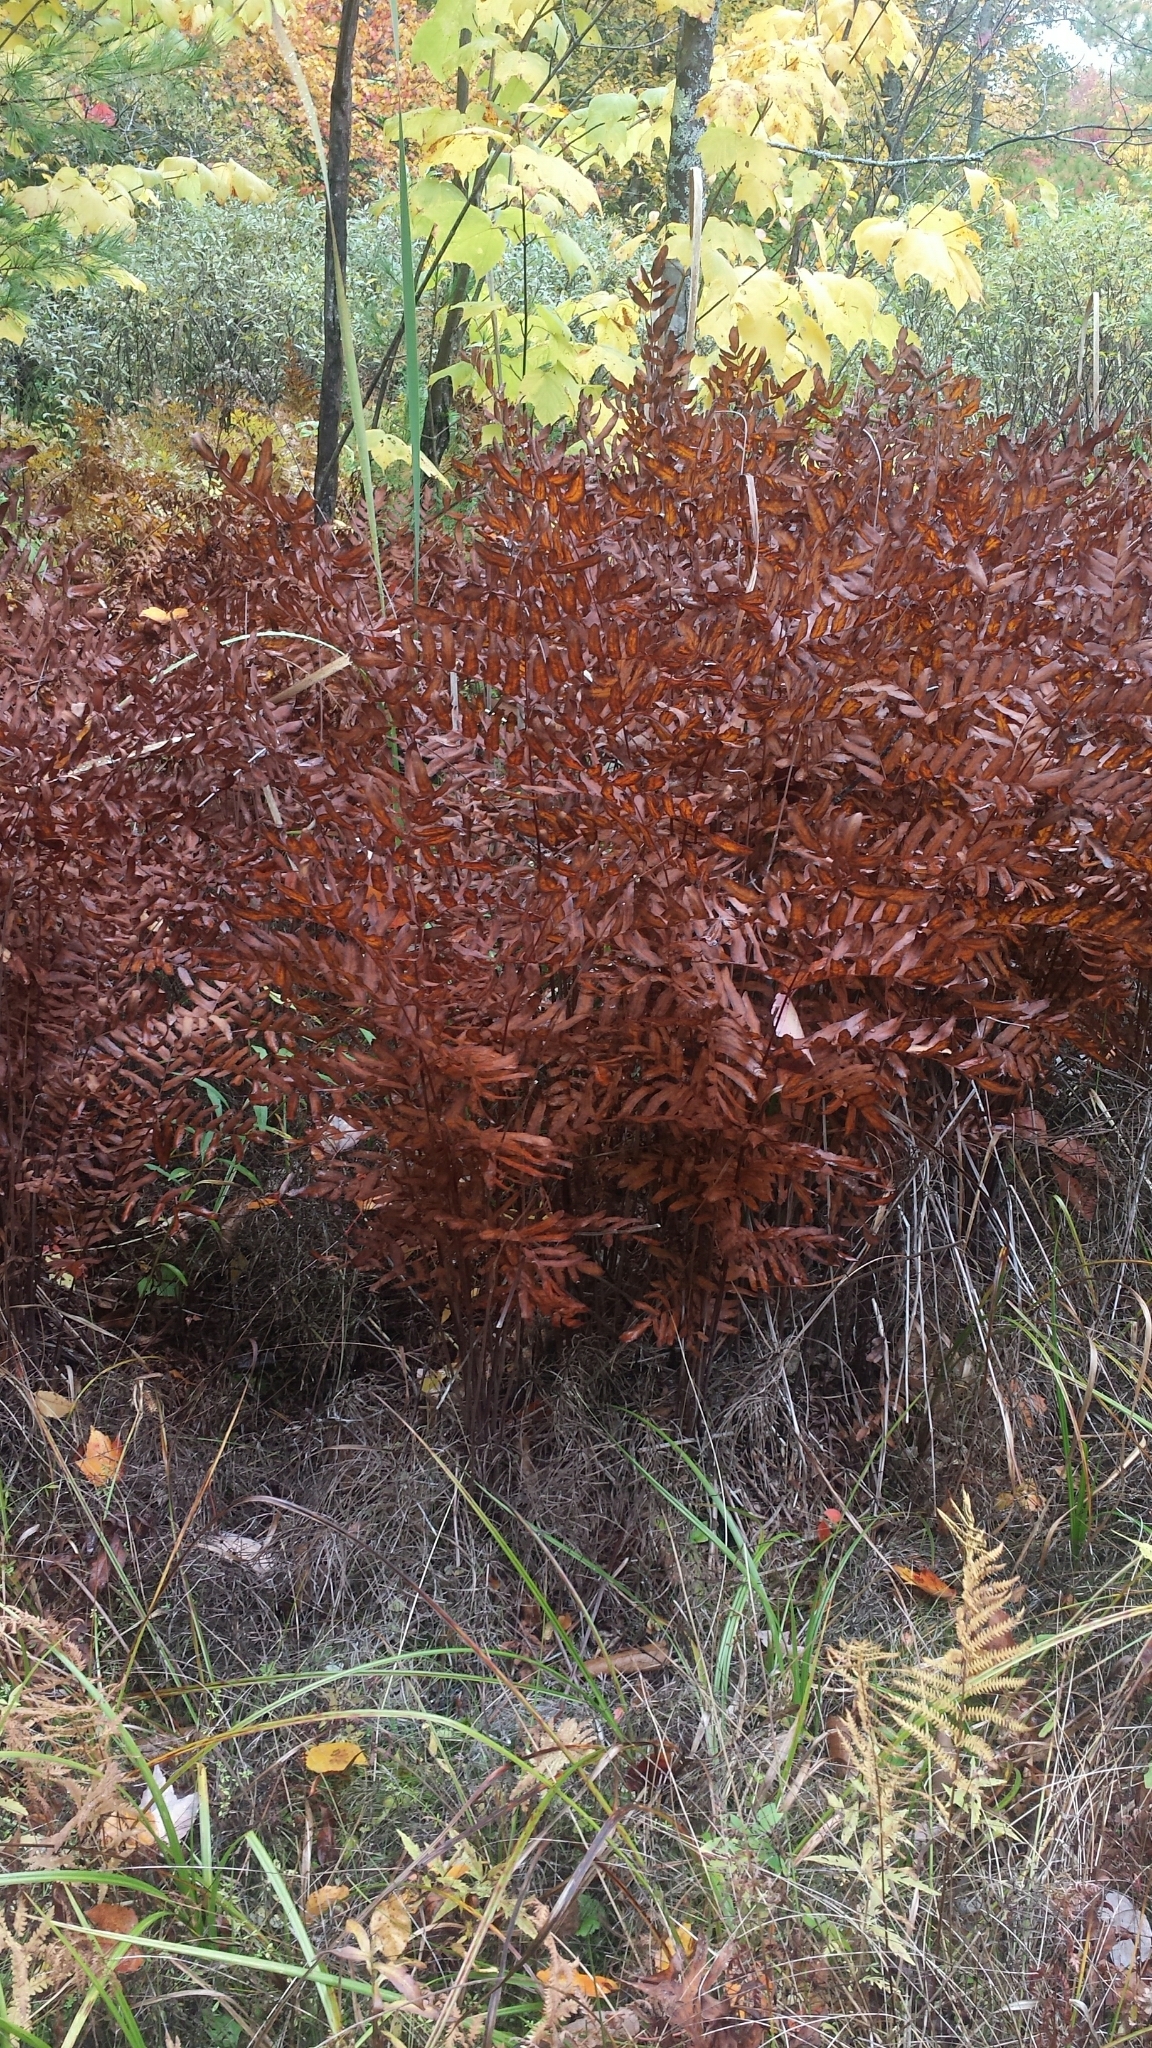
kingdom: Plantae
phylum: Tracheophyta
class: Polypodiopsida
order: Osmundales
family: Osmundaceae
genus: Osmunda
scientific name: Osmunda spectabilis
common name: American royal fern
